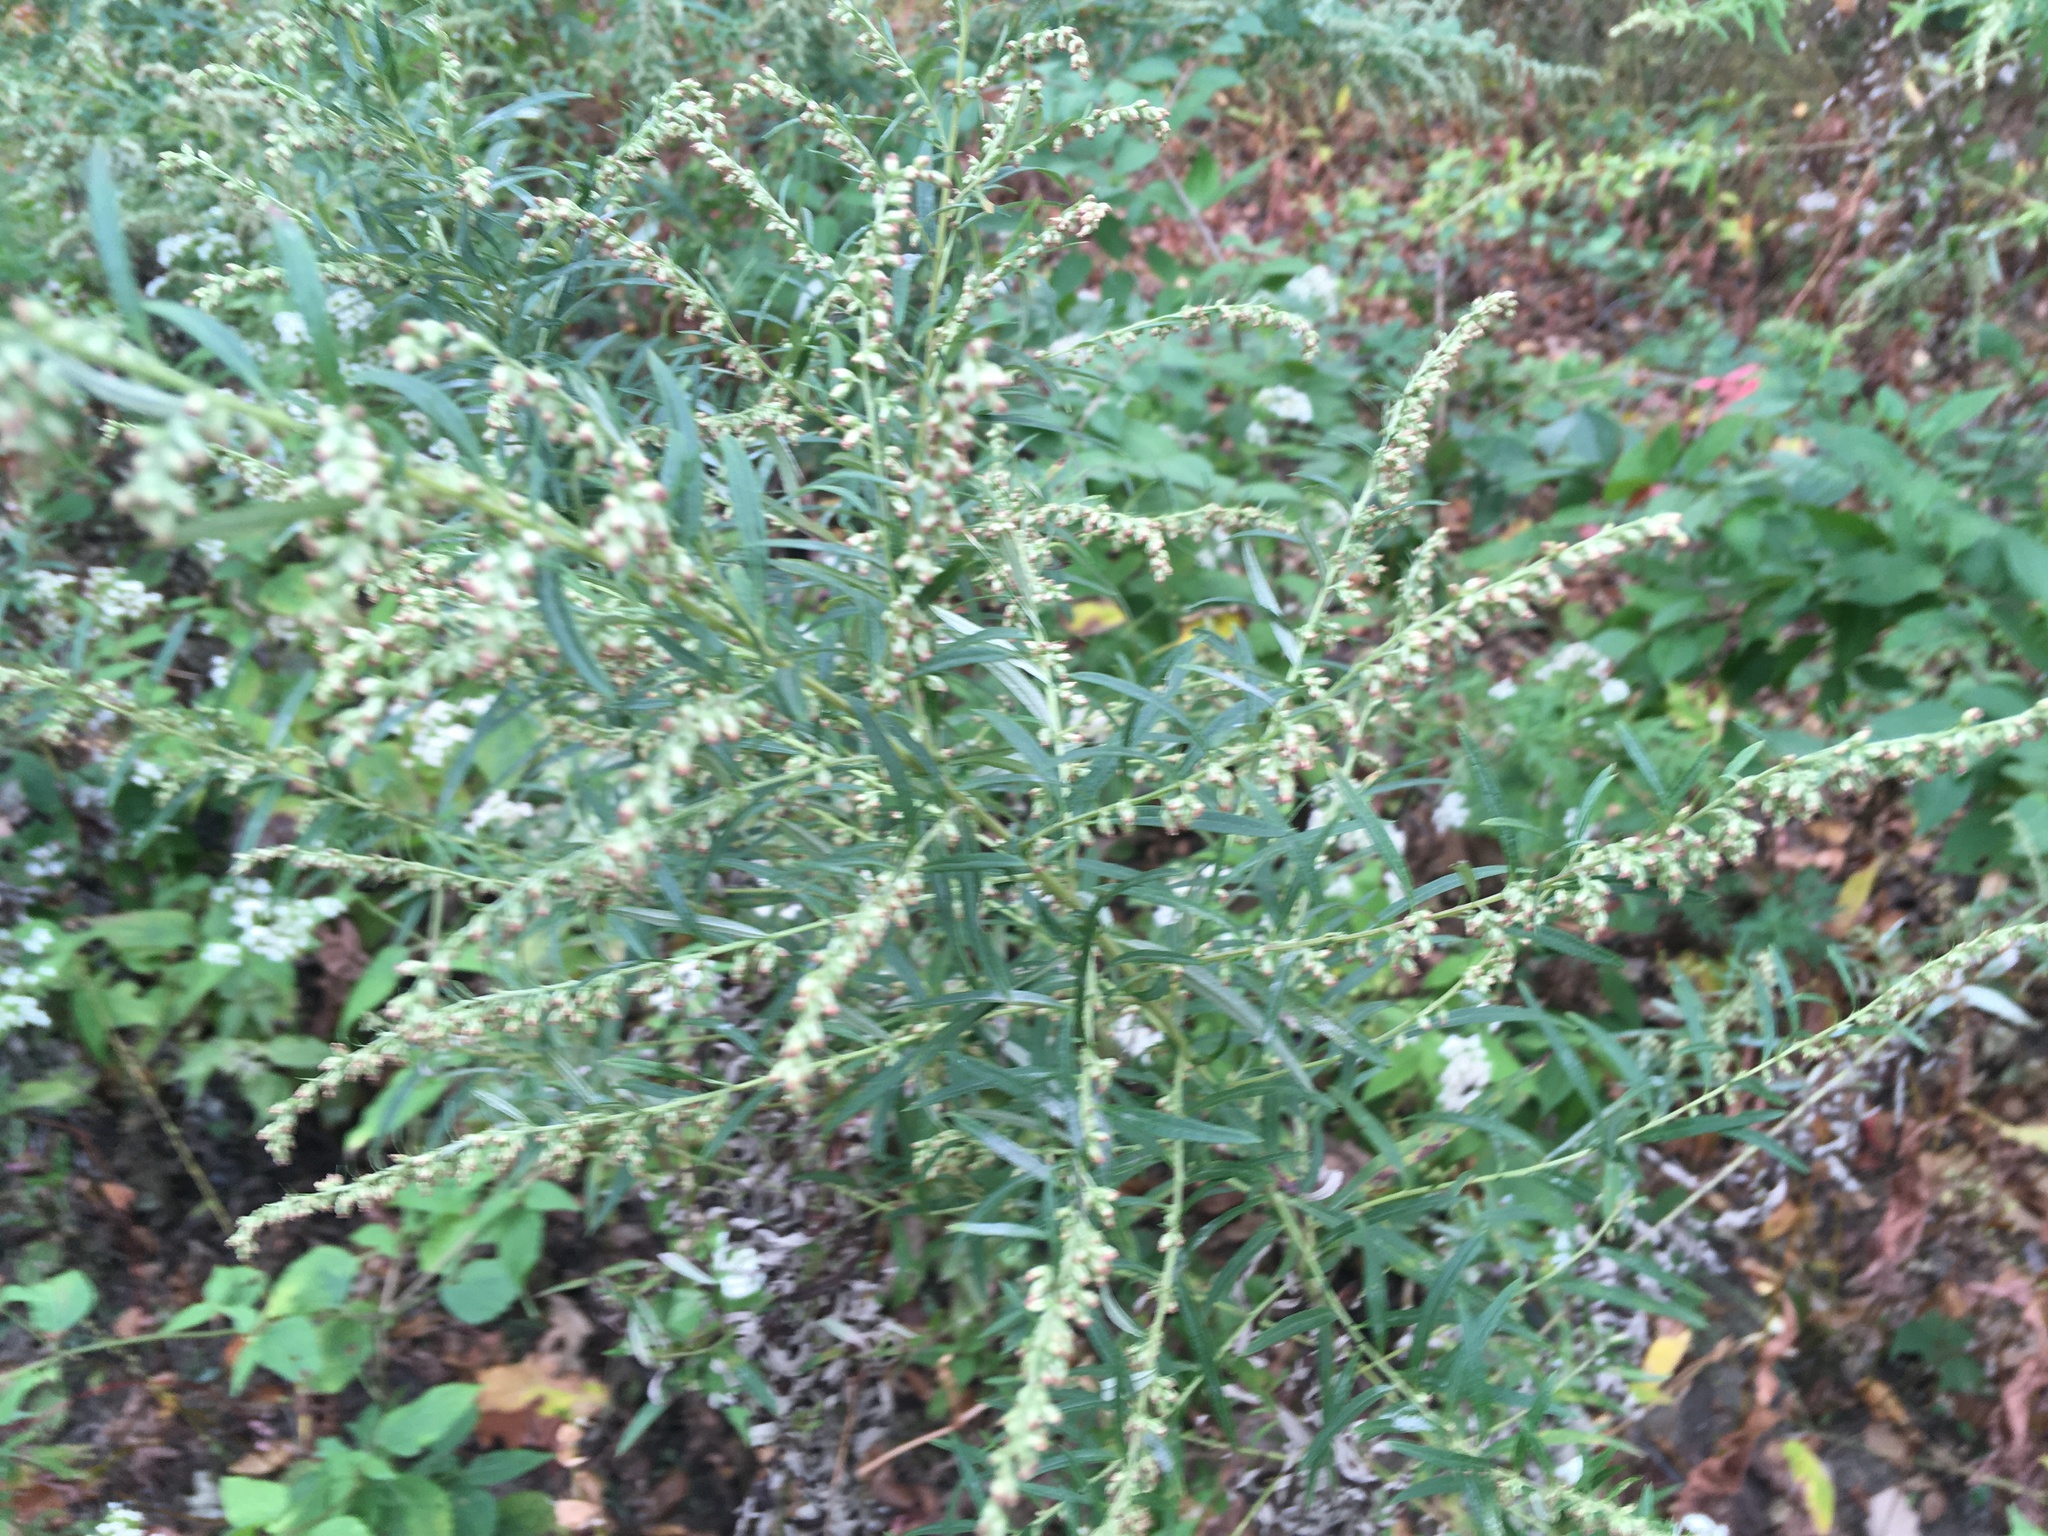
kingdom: Plantae
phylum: Tracheophyta
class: Magnoliopsida
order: Asterales
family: Asteraceae
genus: Artemisia
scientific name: Artemisia vulgaris
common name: Mugwort
